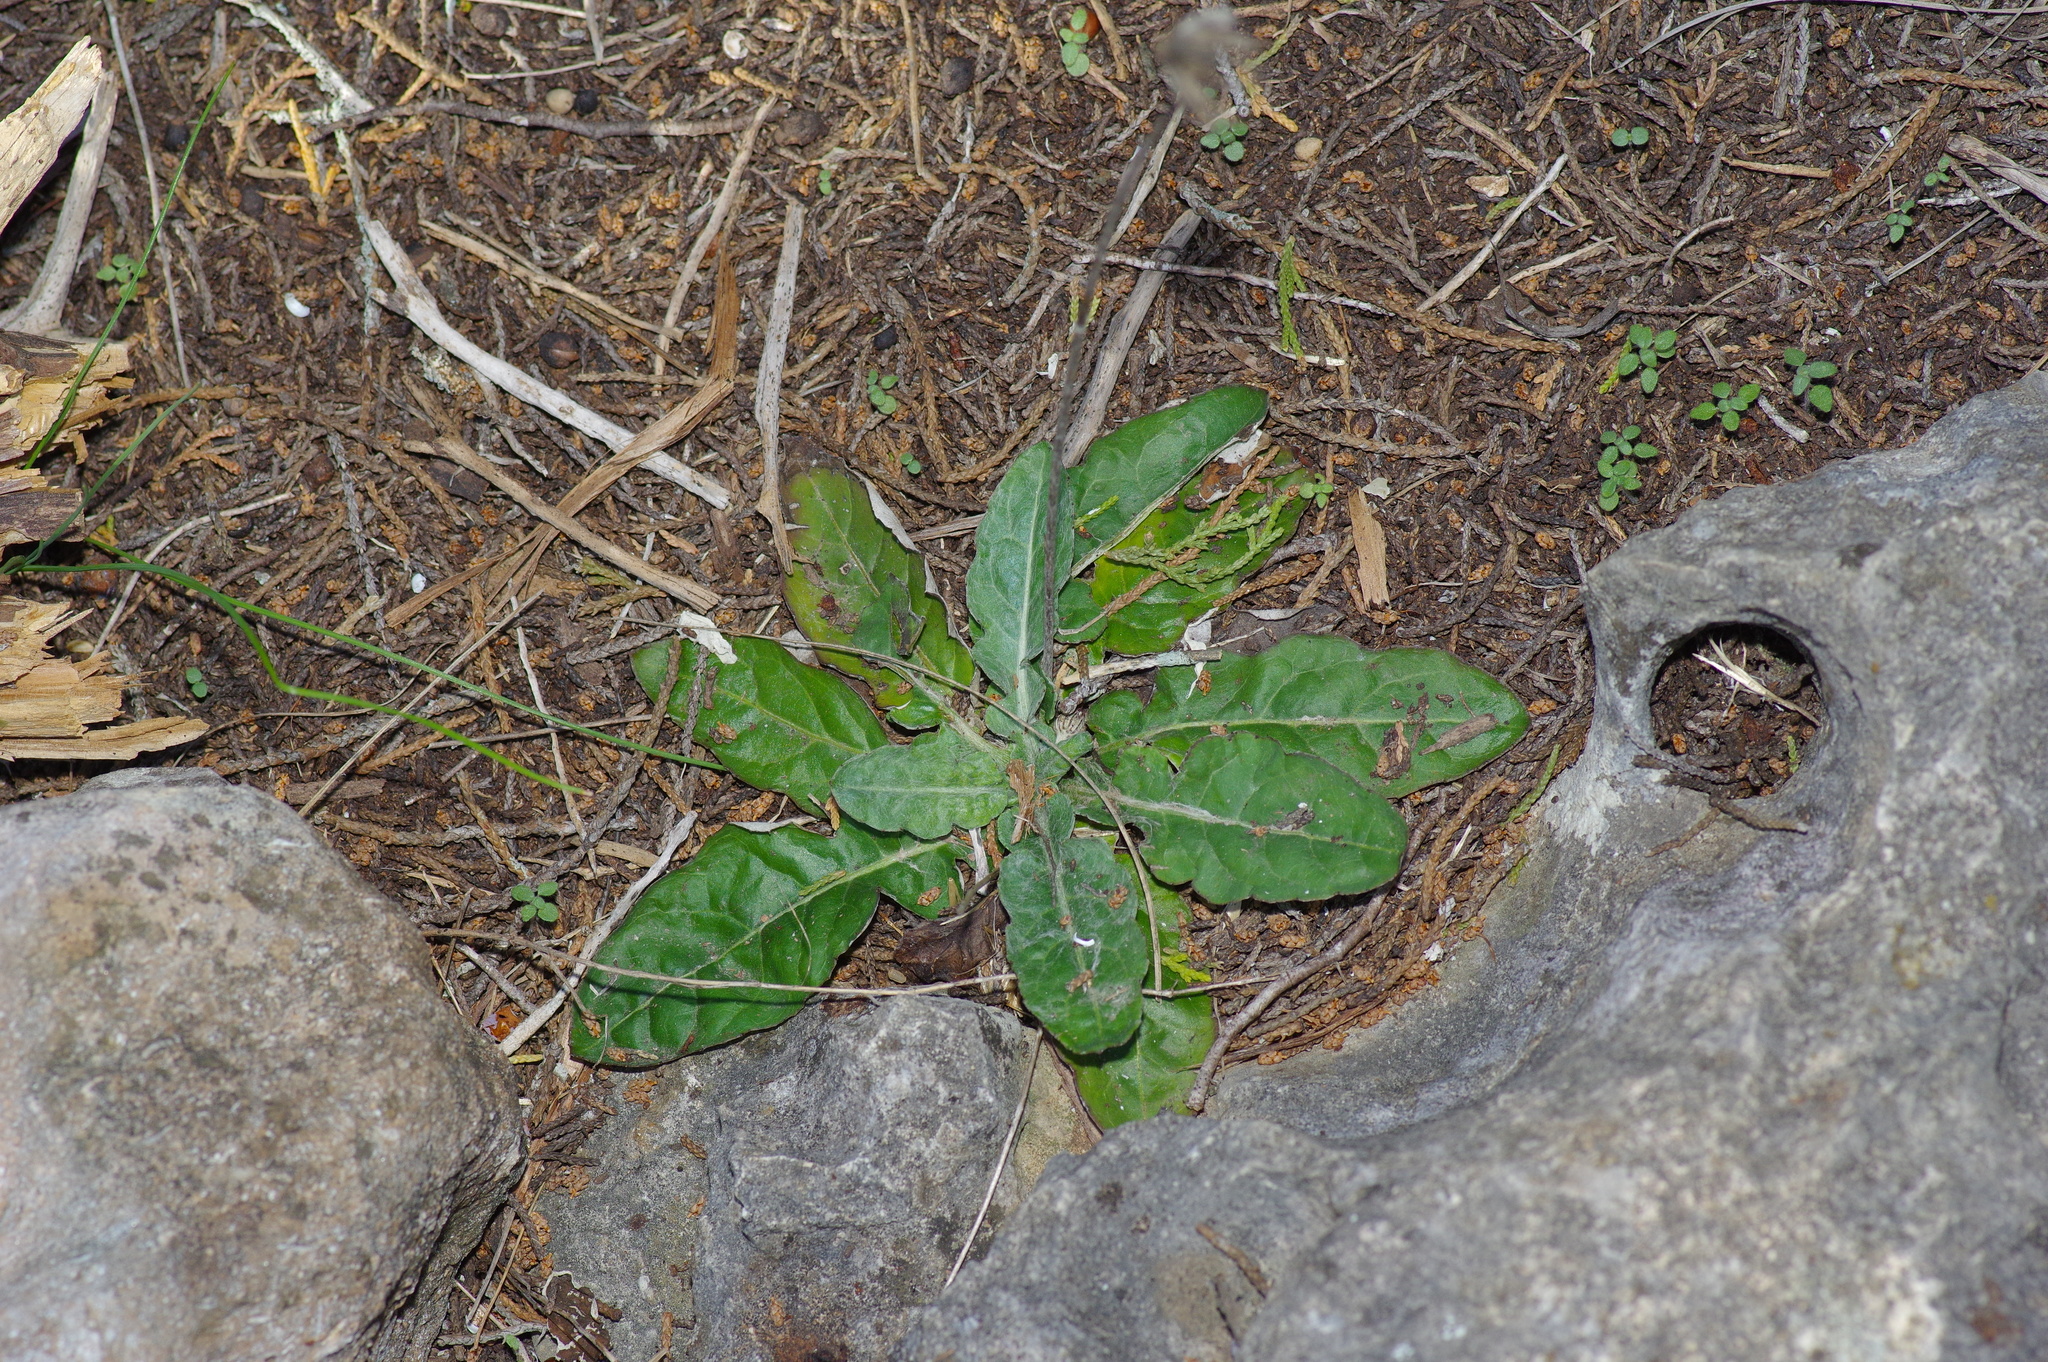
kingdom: Plantae
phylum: Tracheophyta
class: Magnoliopsida
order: Asterales
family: Asteraceae
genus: Chaptalia
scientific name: Chaptalia texana
